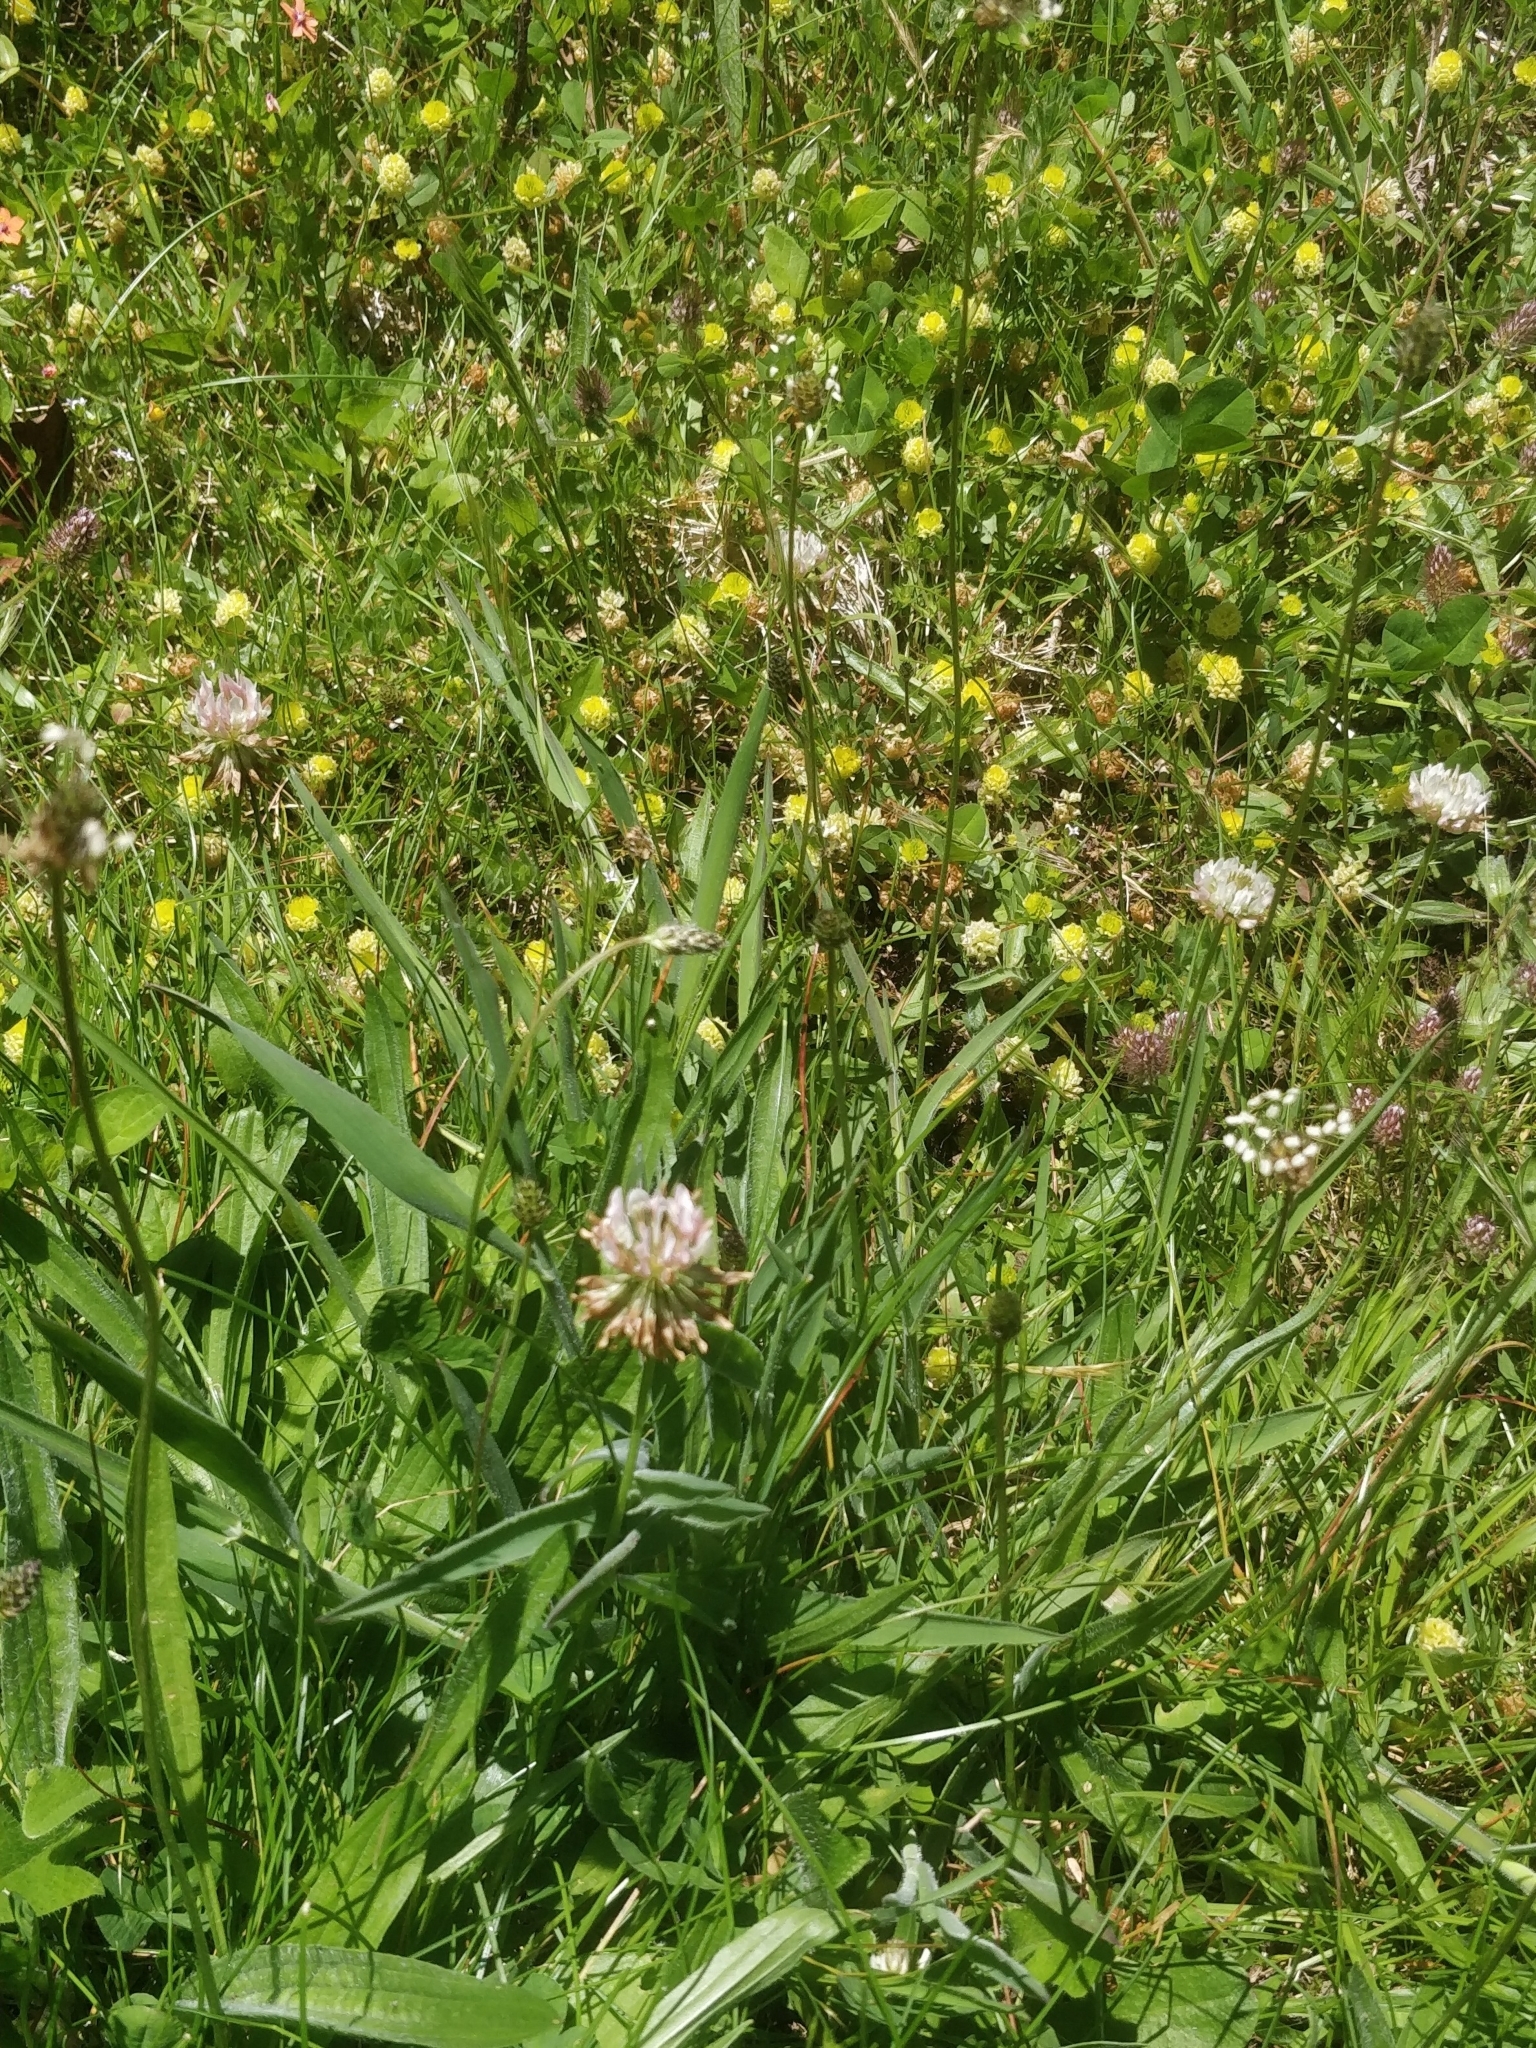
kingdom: Plantae
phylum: Tracheophyta
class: Magnoliopsida
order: Fabales
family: Fabaceae
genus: Trifolium
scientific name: Trifolium repens
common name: White clover
